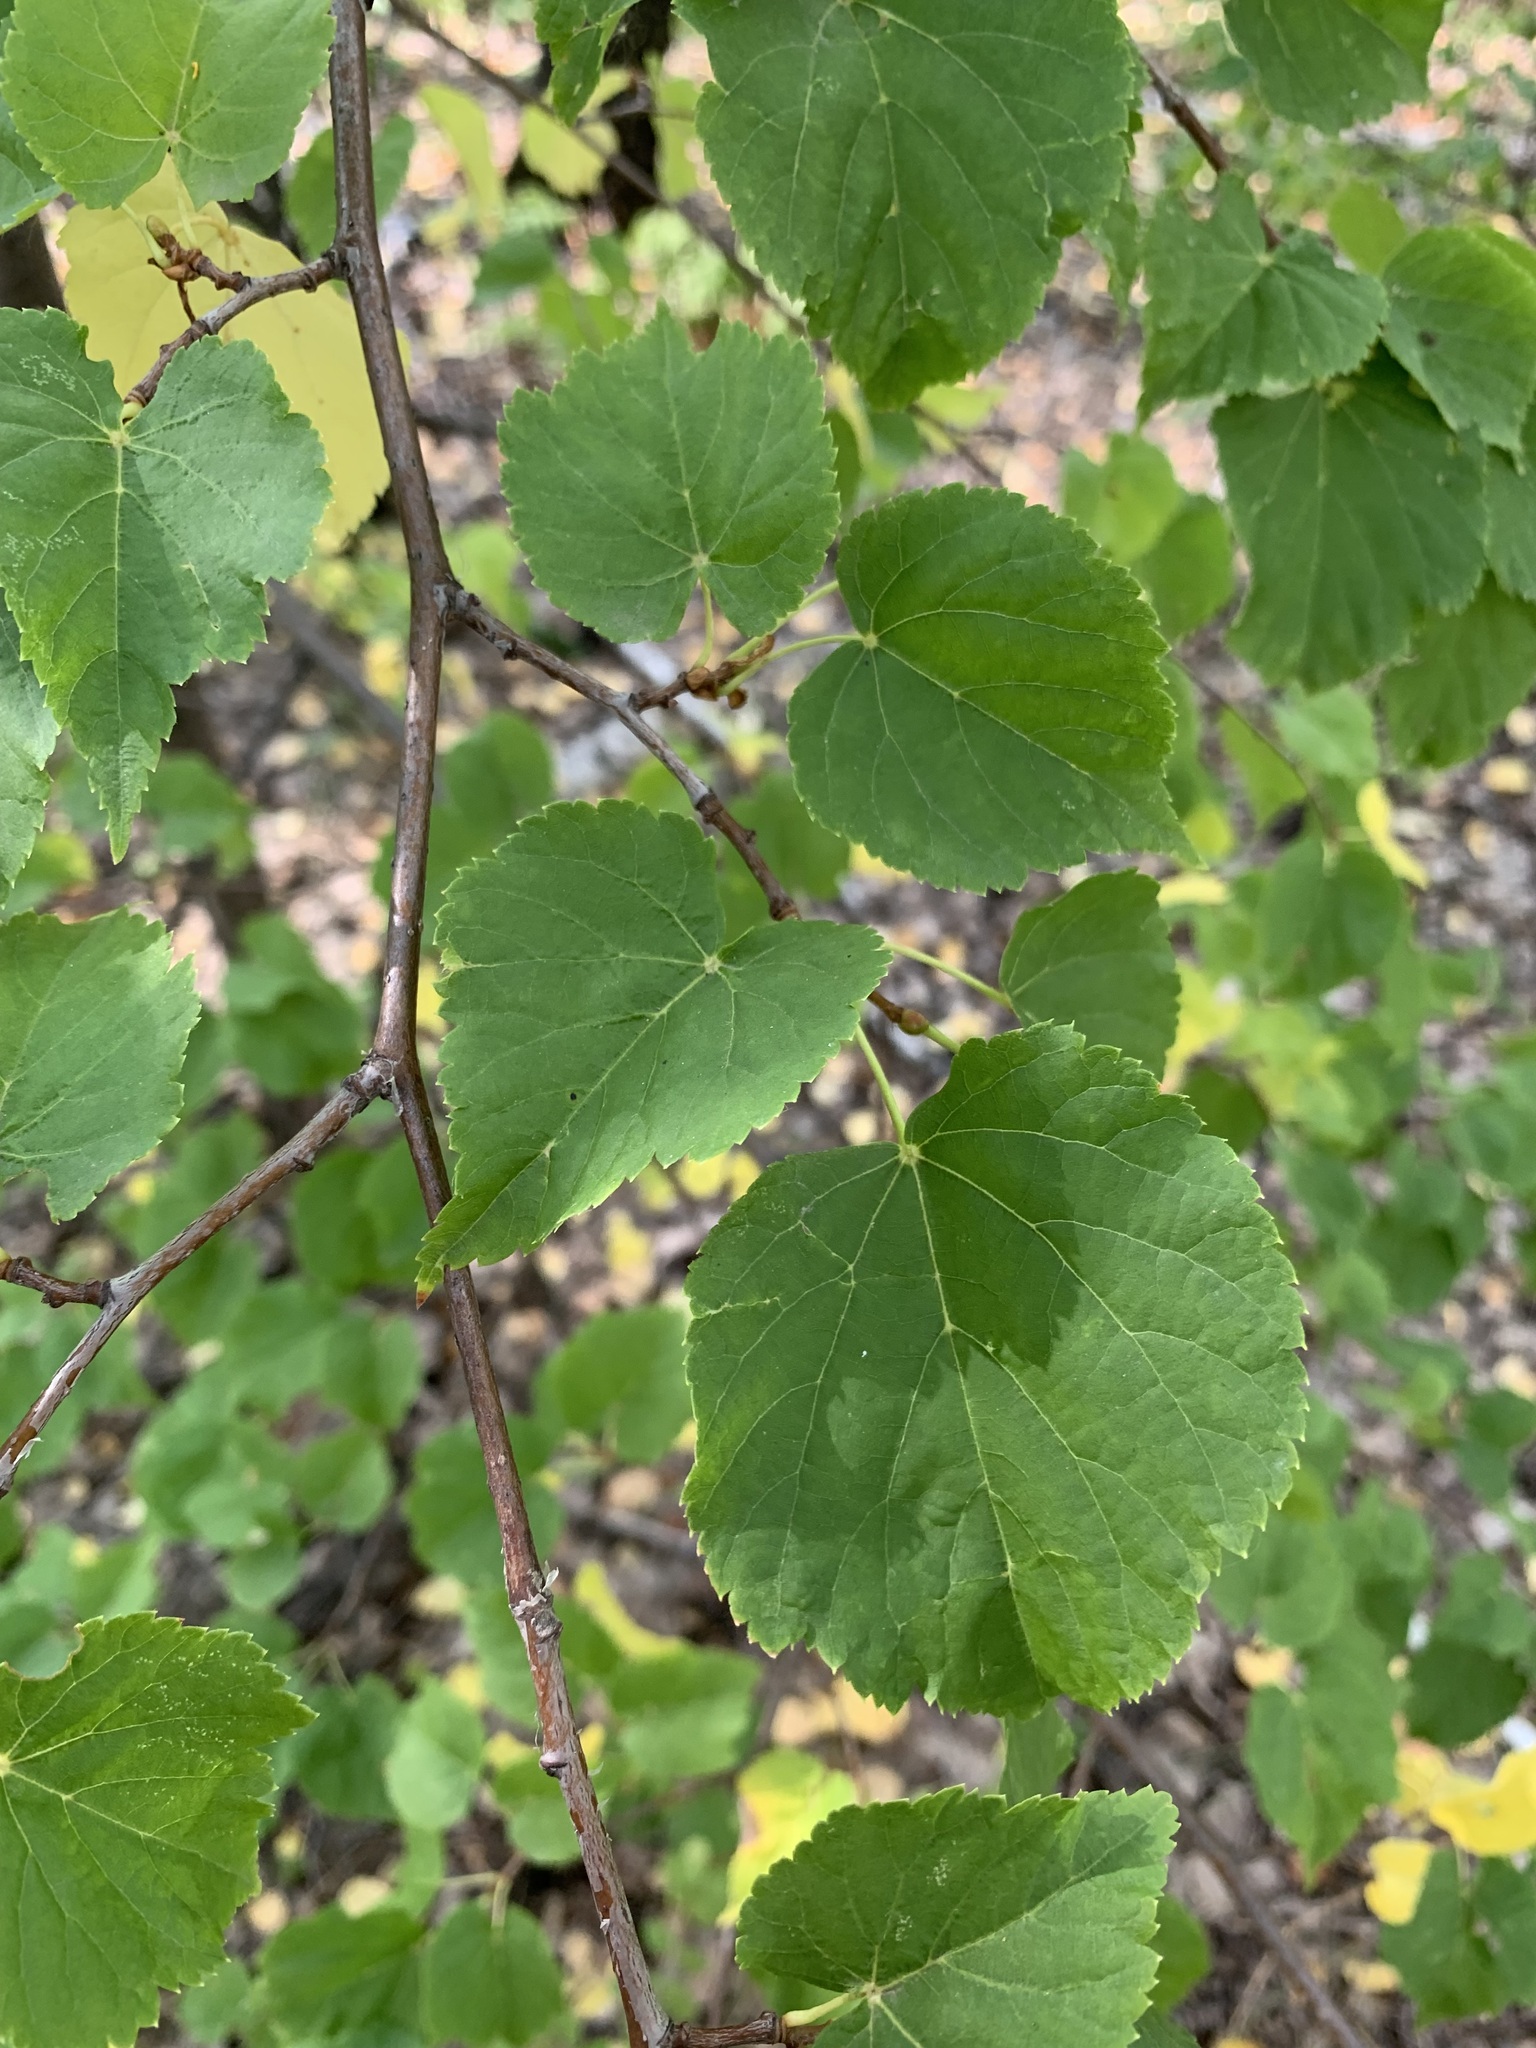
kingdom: Plantae
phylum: Tracheophyta
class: Magnoliopsida
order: Malvales
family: Malvaceae
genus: Tilia
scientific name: Tilia cordata
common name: Small-leaved lime
